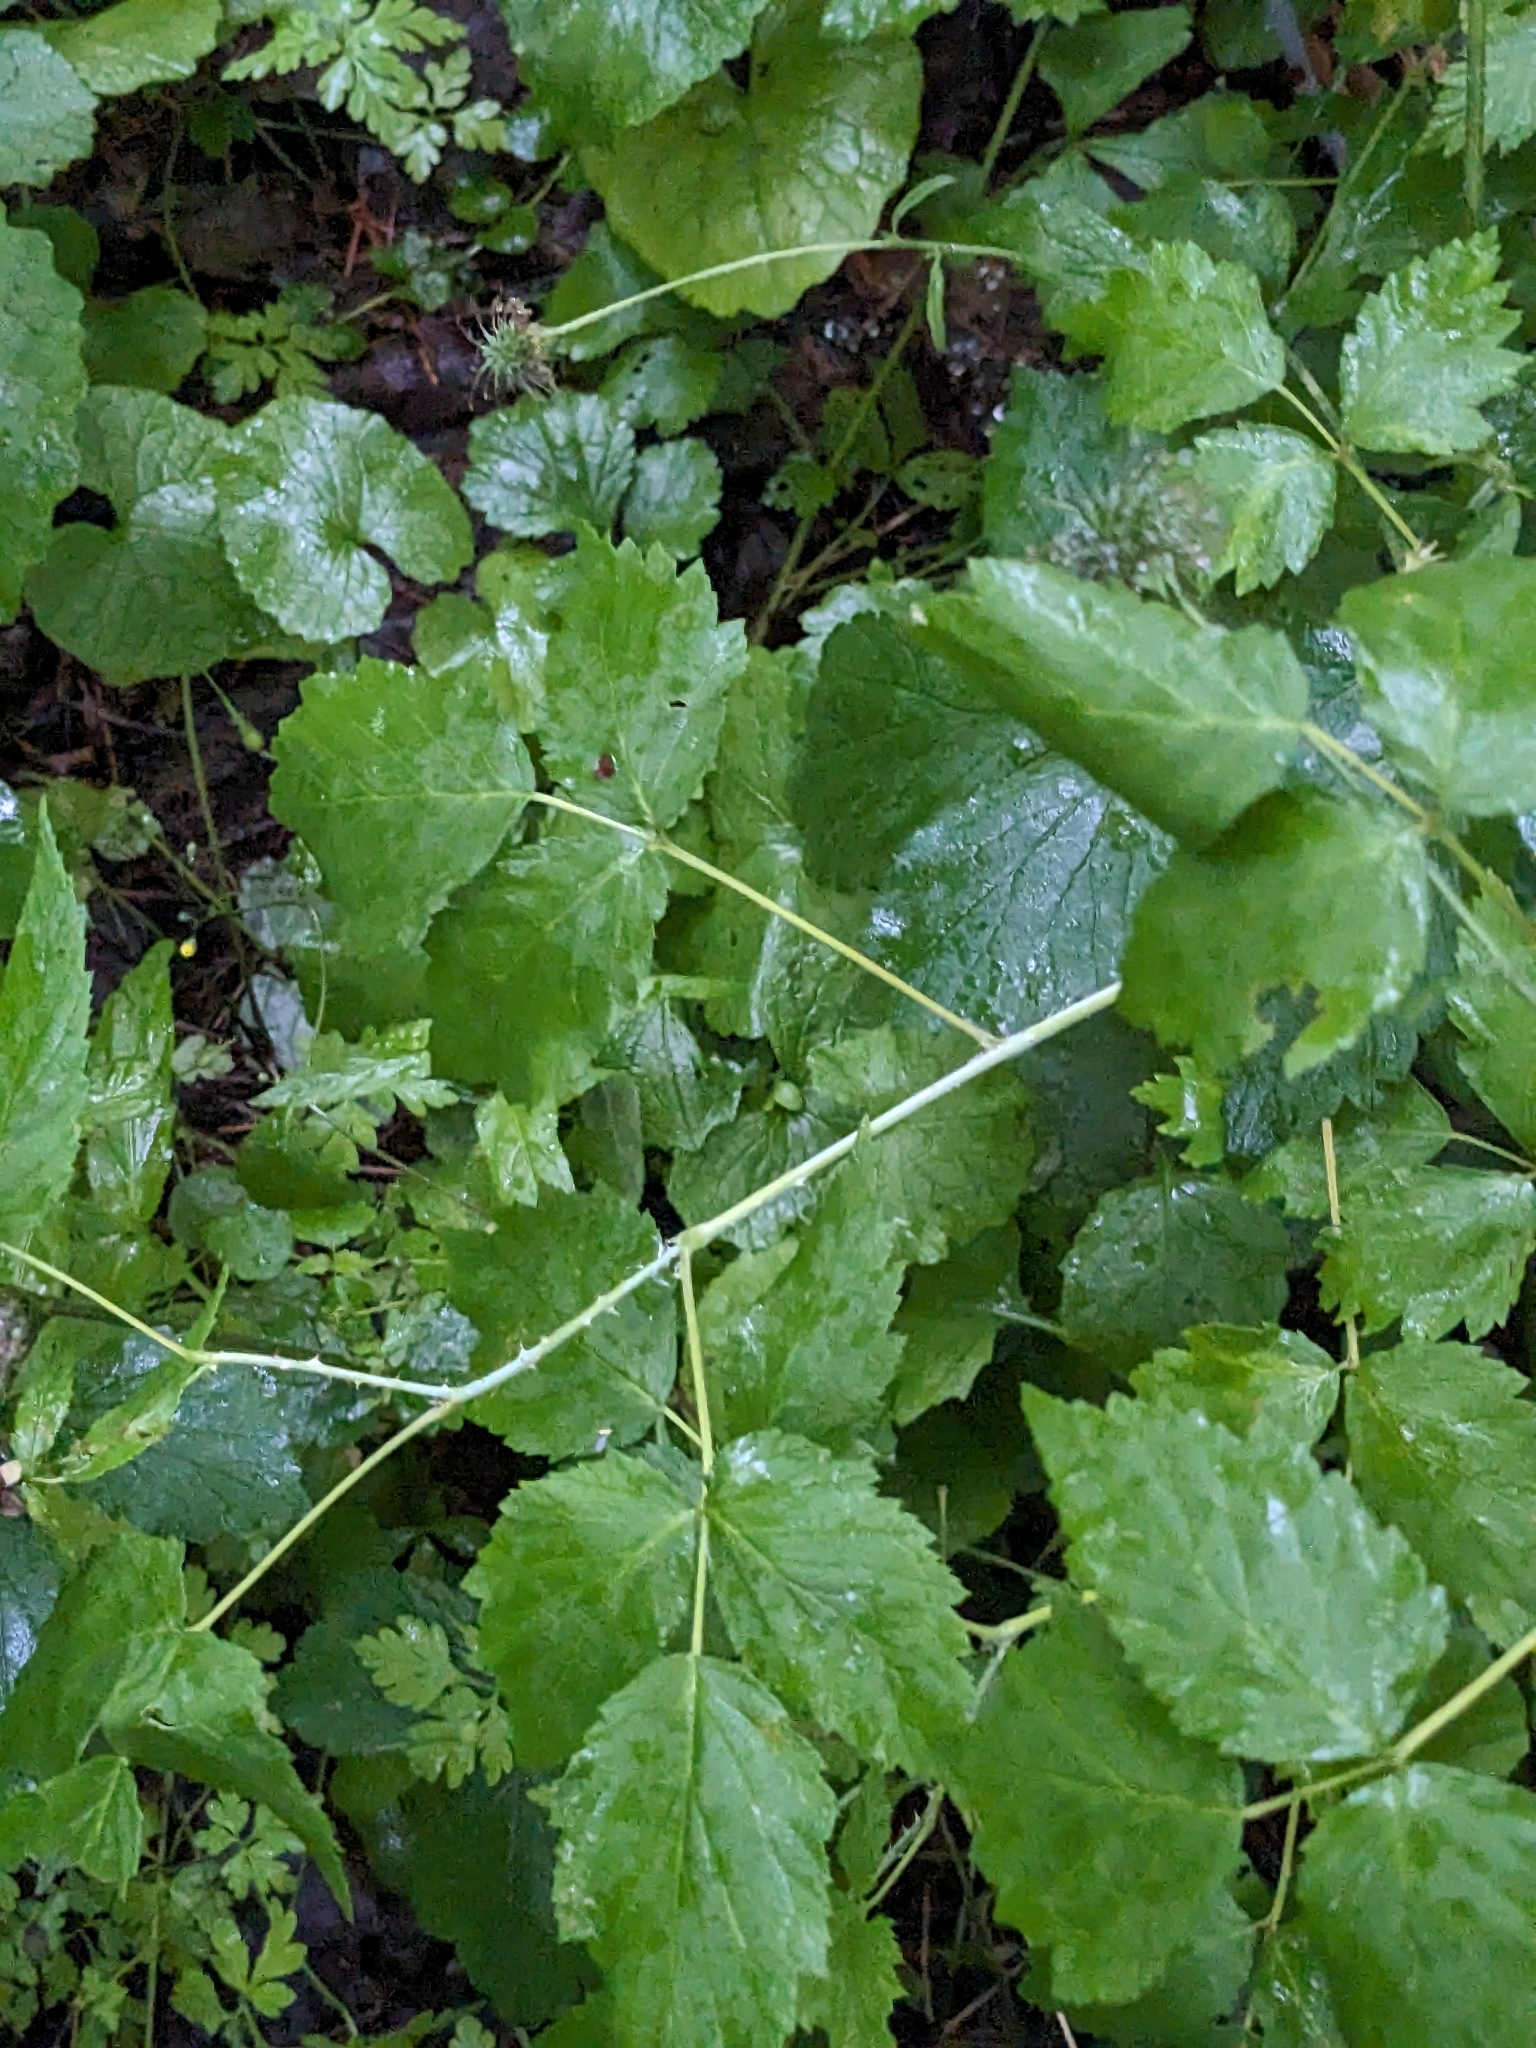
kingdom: Plantae
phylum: Tracheophyta
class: Magnoliopsida
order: Rosales
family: Rosaceae
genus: Rubus
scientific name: Rubus occidentalis
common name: Black raspberry
